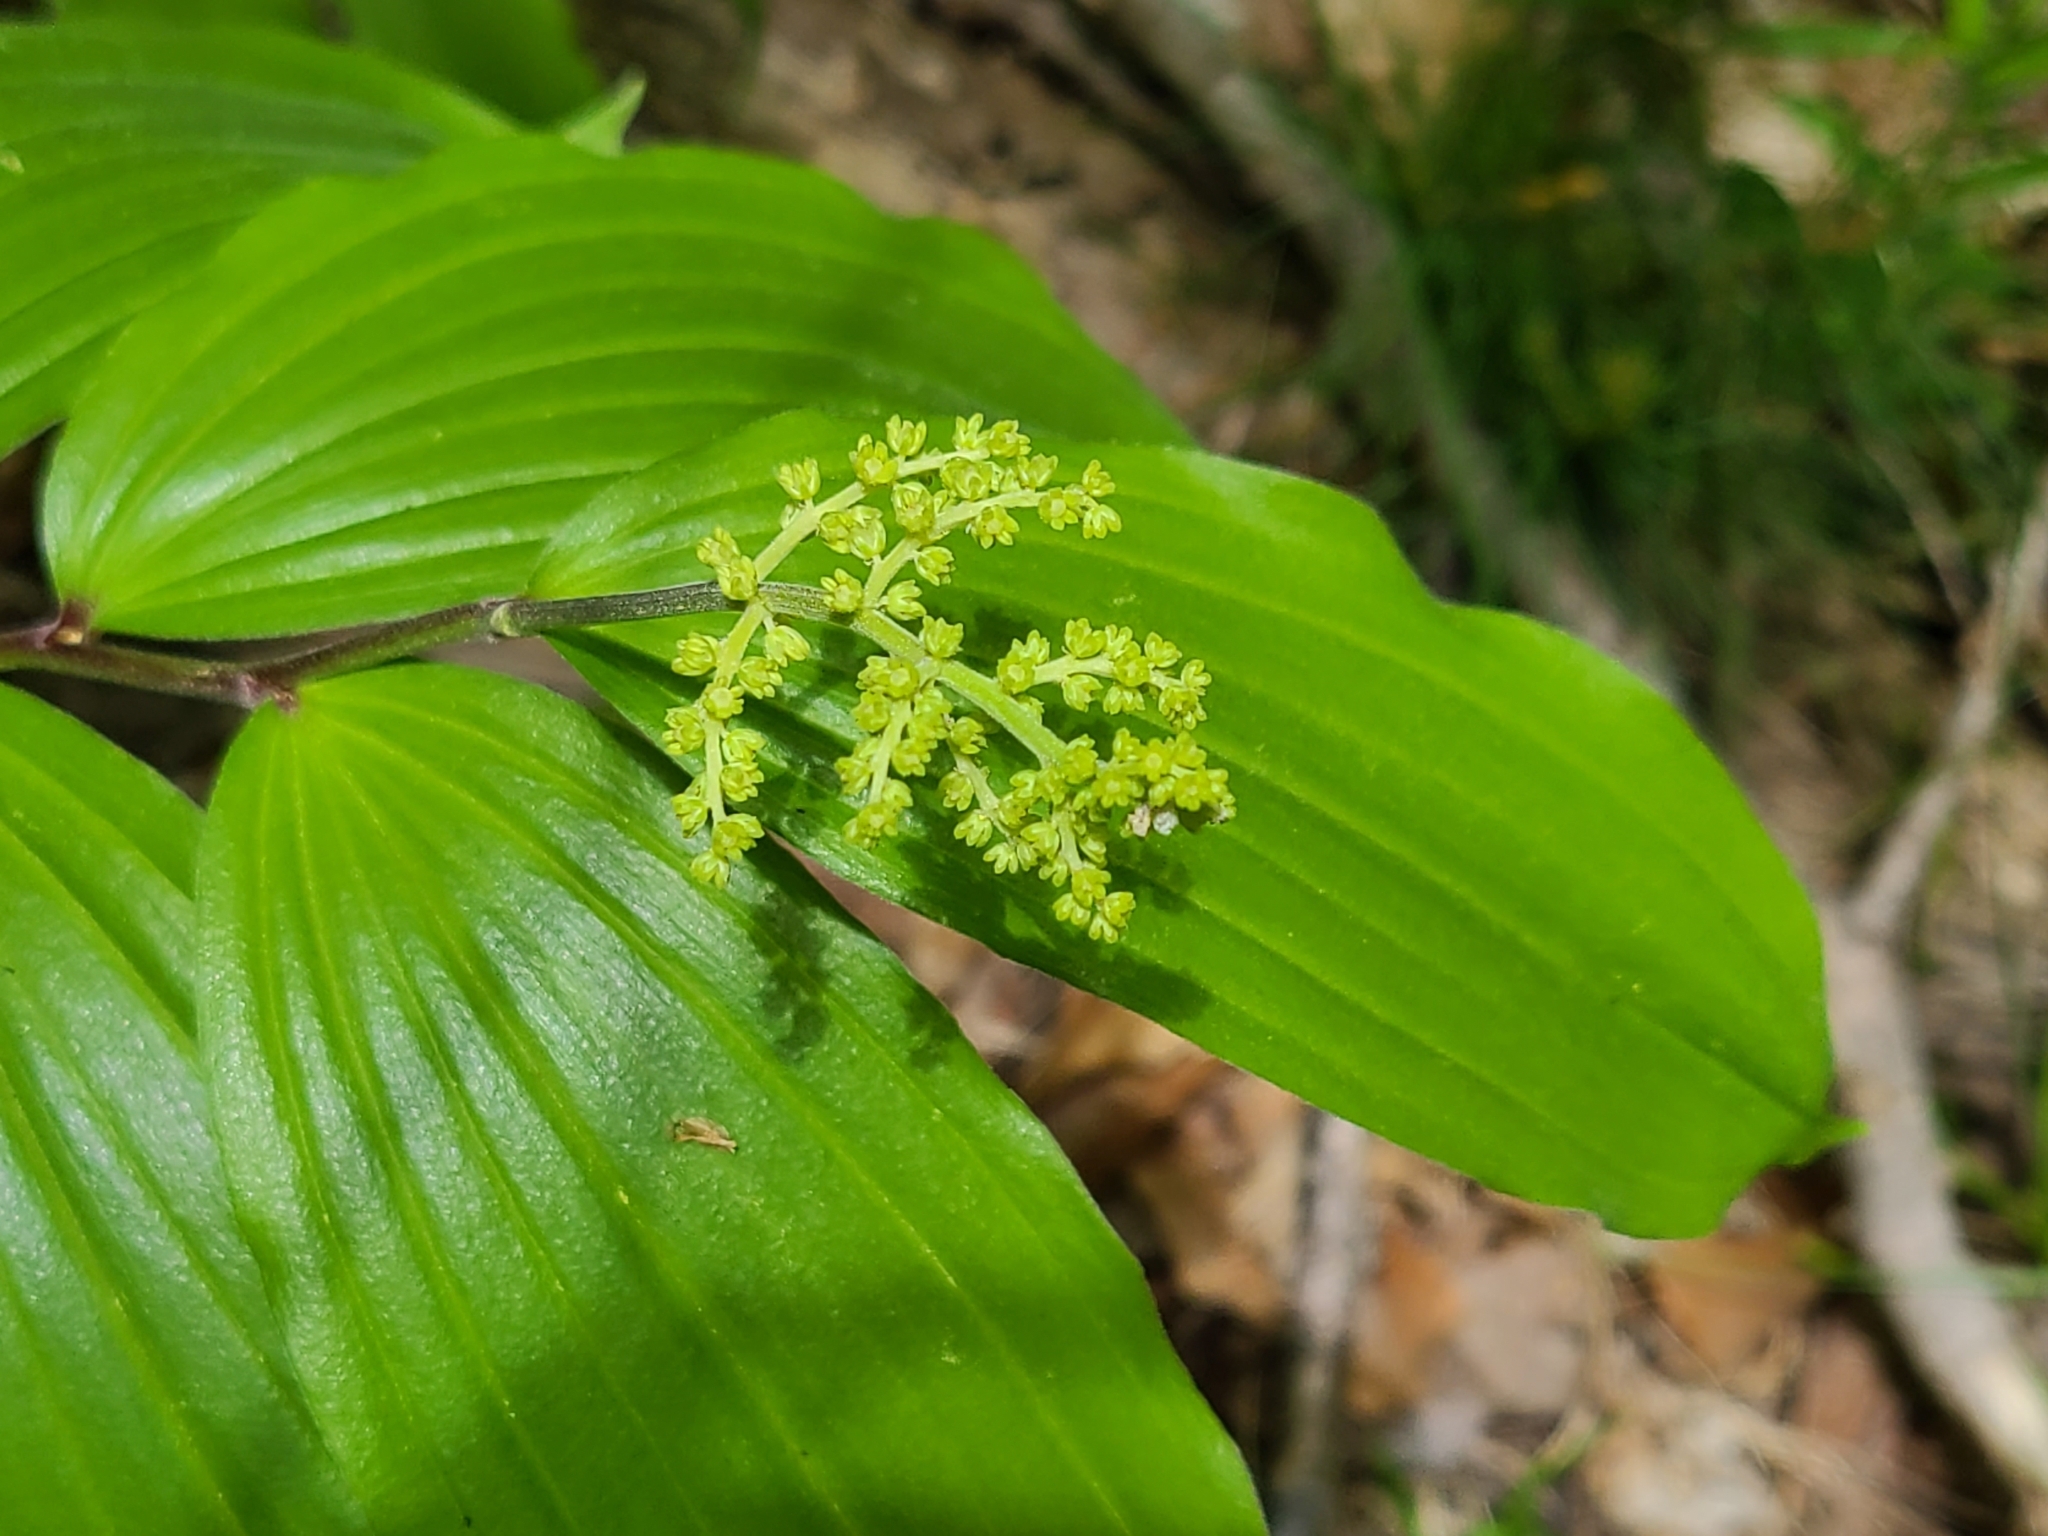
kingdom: Plantae
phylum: Tracheophyta
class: Liliopsida
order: Asparagales
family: Asparagaceae
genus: Maianthemum
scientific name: Maianthemum racemosum
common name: False spikenard
